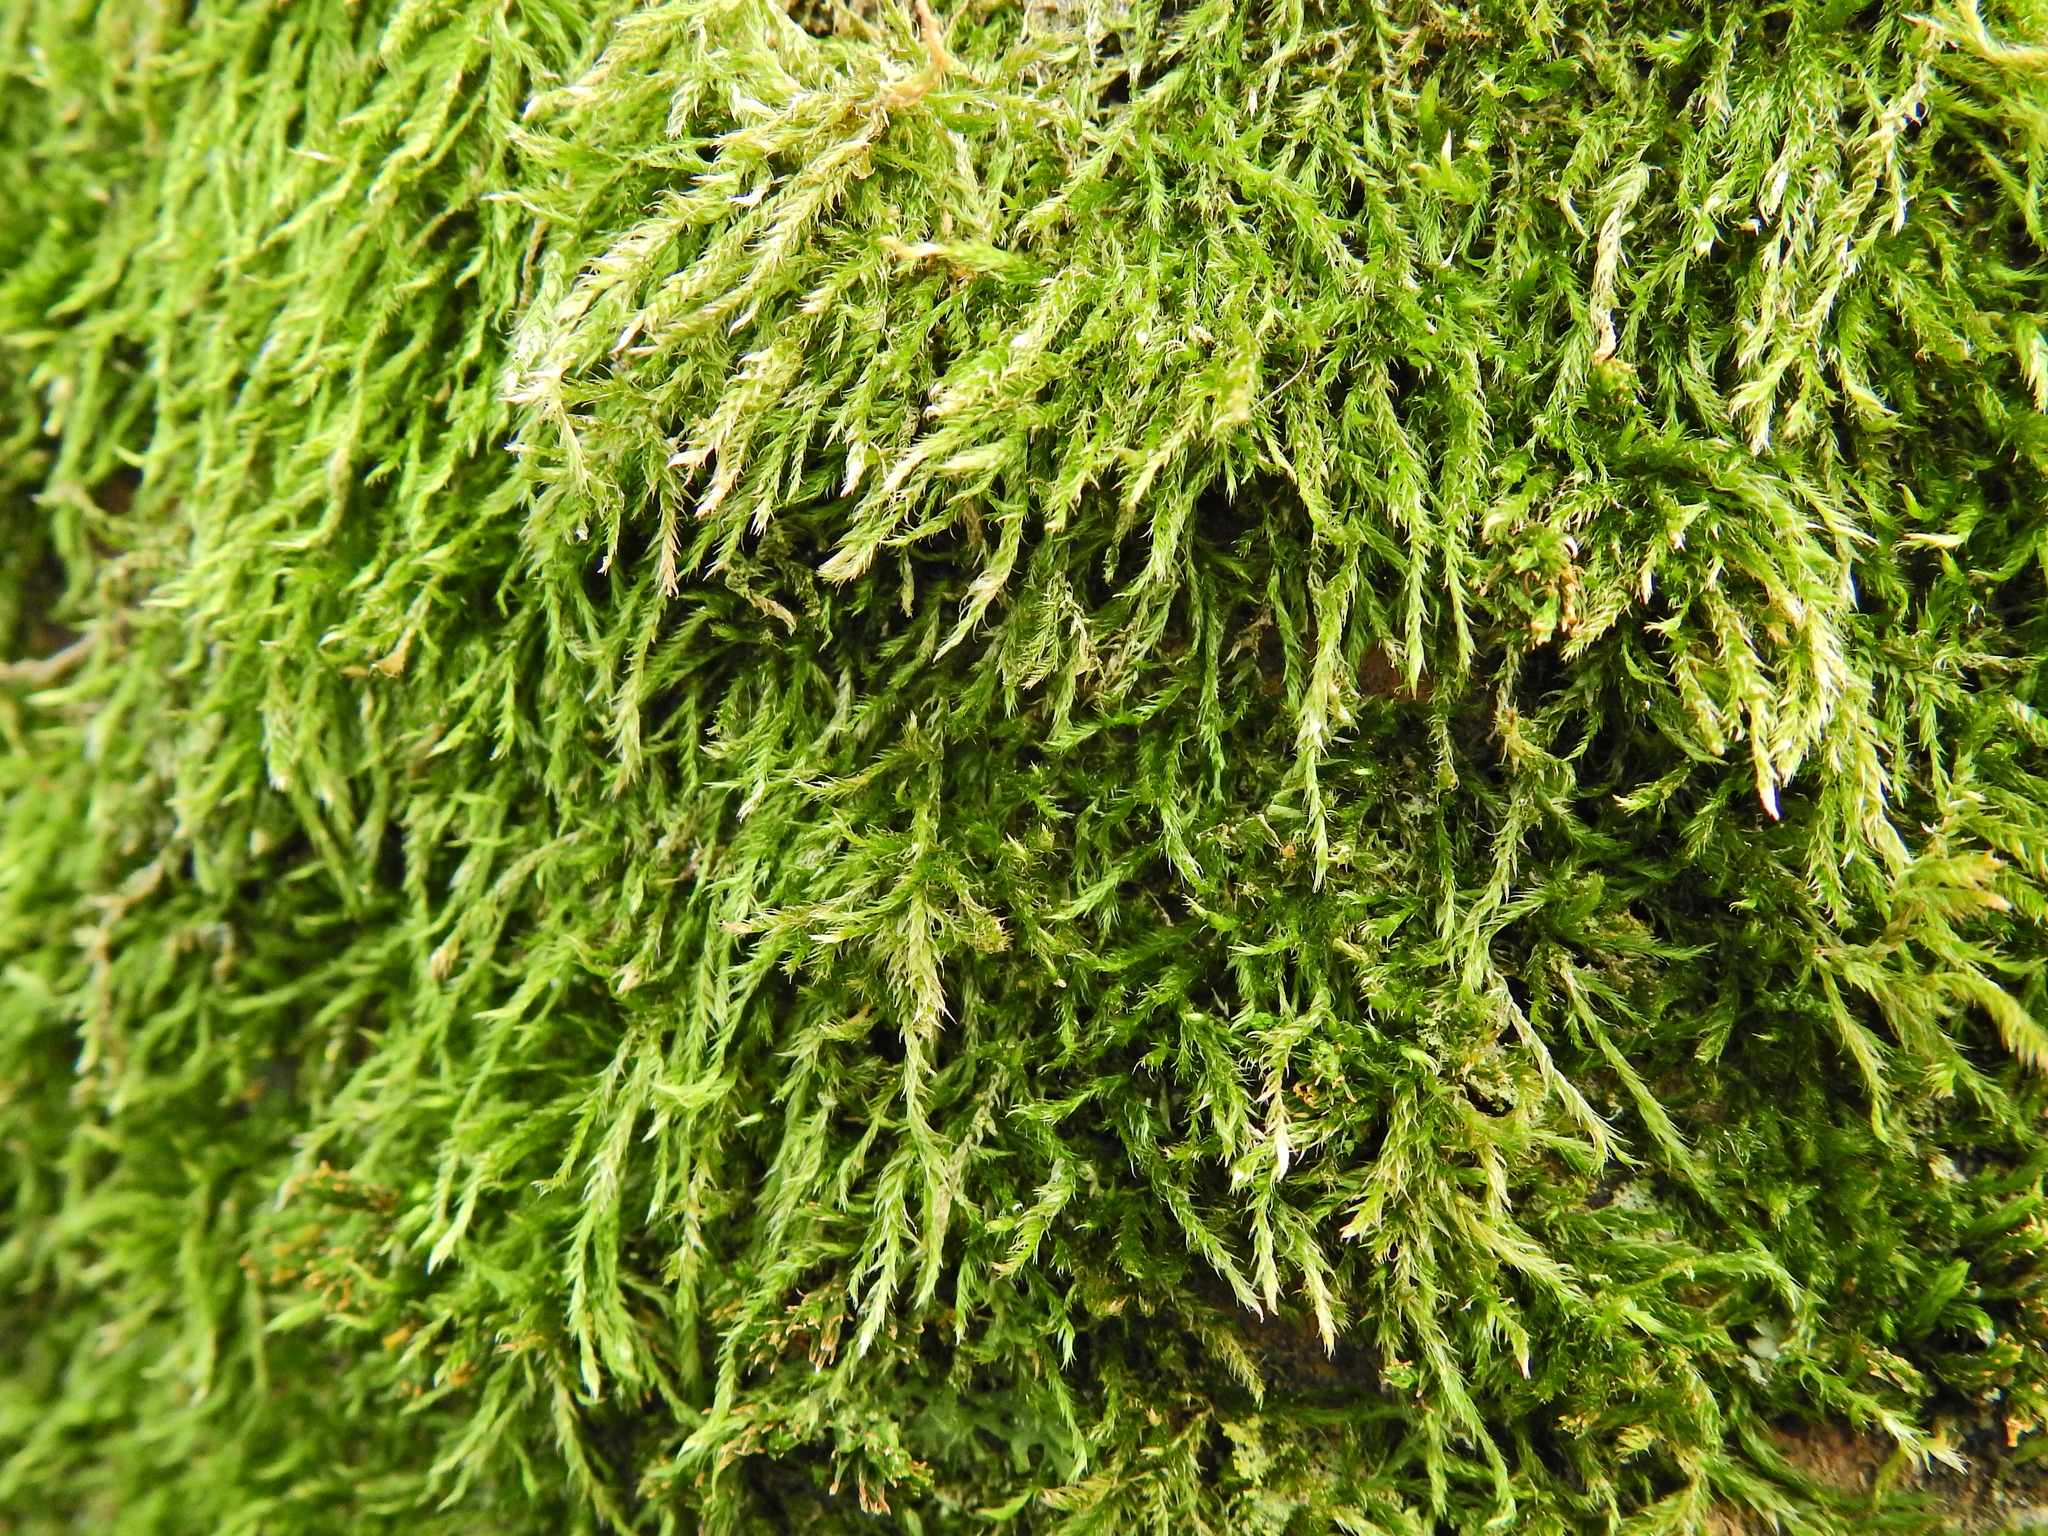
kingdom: Plantae
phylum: Bryophyta
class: Bryopsida
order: Hypnales
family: Hypnaceae
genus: Hypnum
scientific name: Hypnum resupinatum
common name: Supine plait-moss
